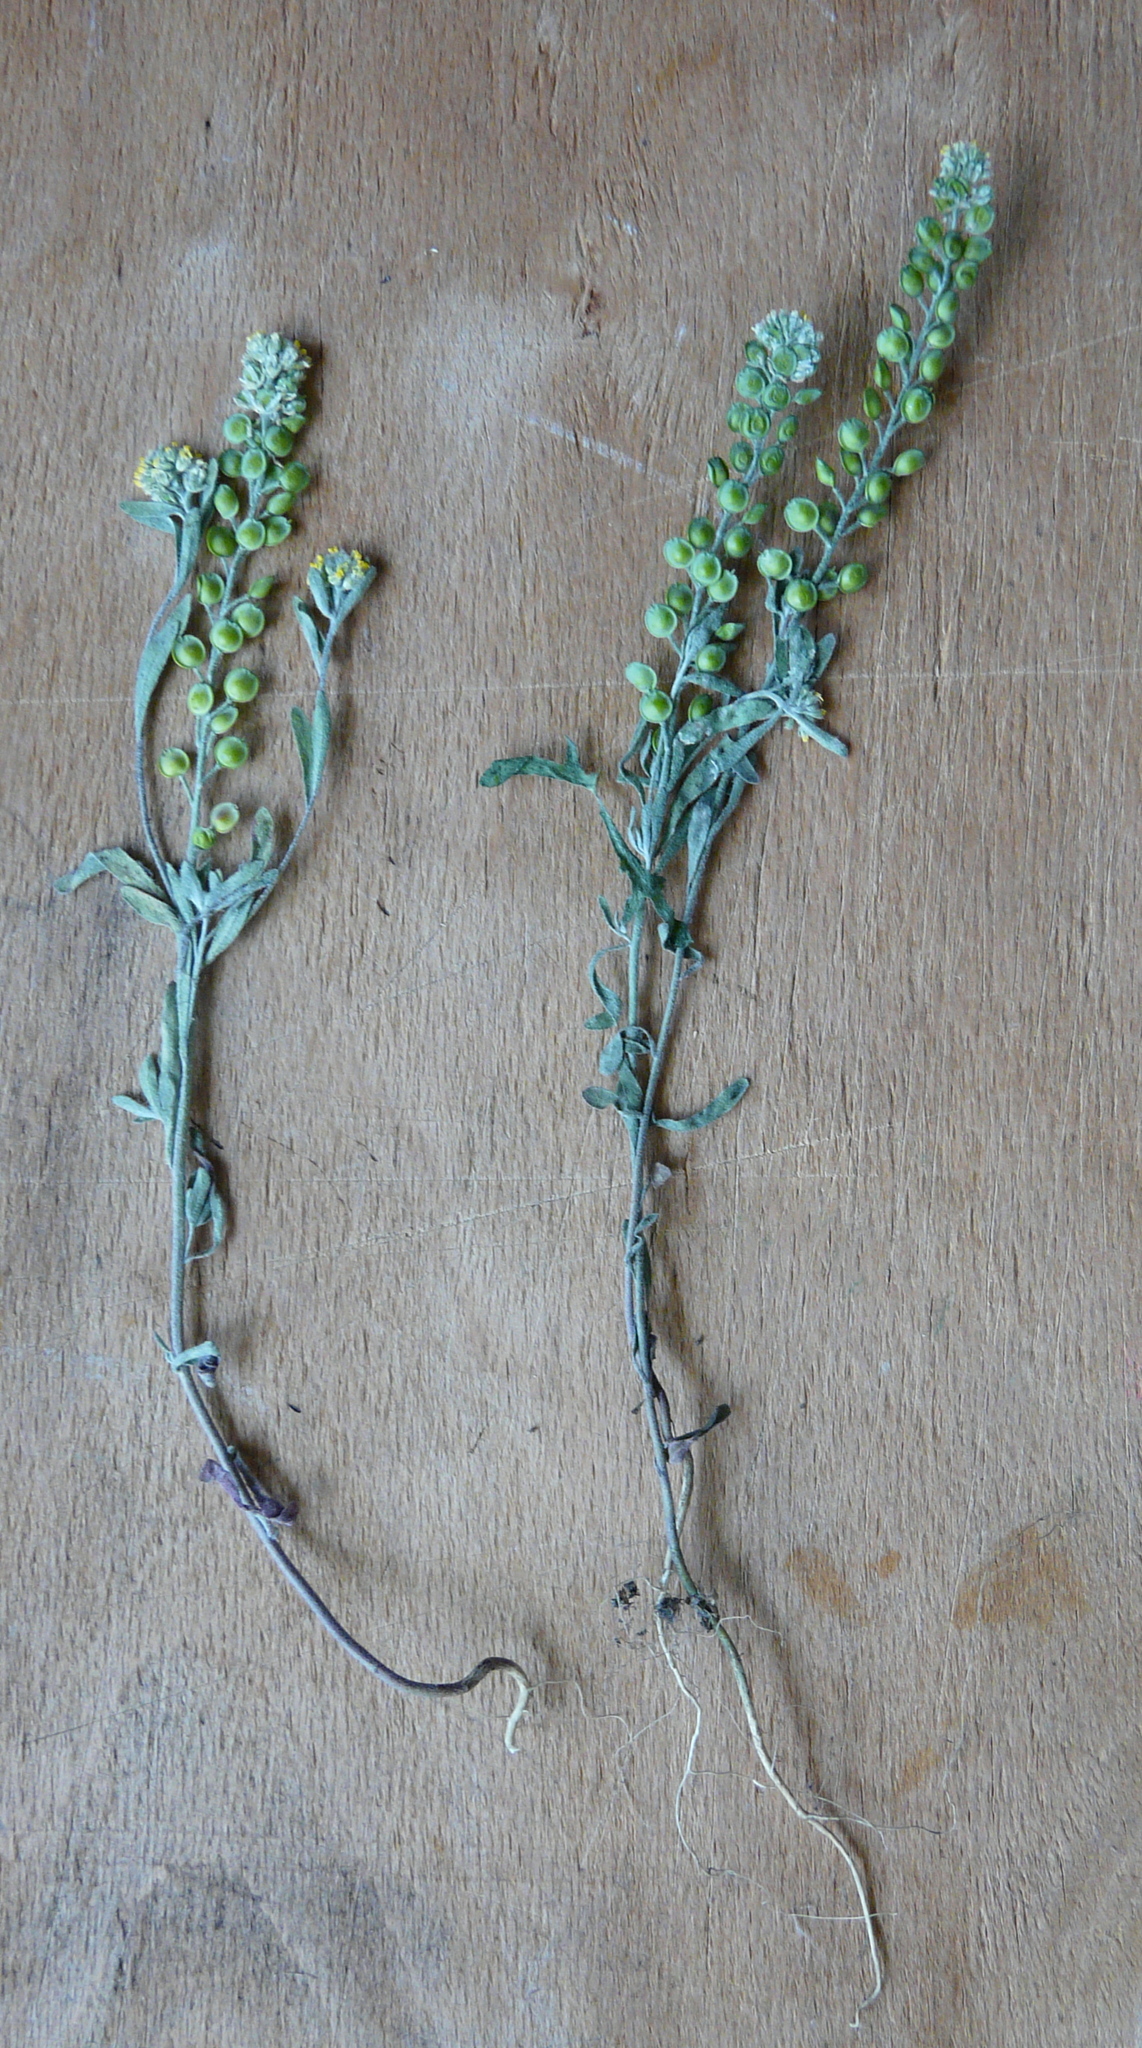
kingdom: Plantae
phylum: Tracheophyta
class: Magnoliopsida
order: Brassicales
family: Brassicaceae
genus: Alyssum
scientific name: Alyssum turkestanicum
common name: Desert alyssum
